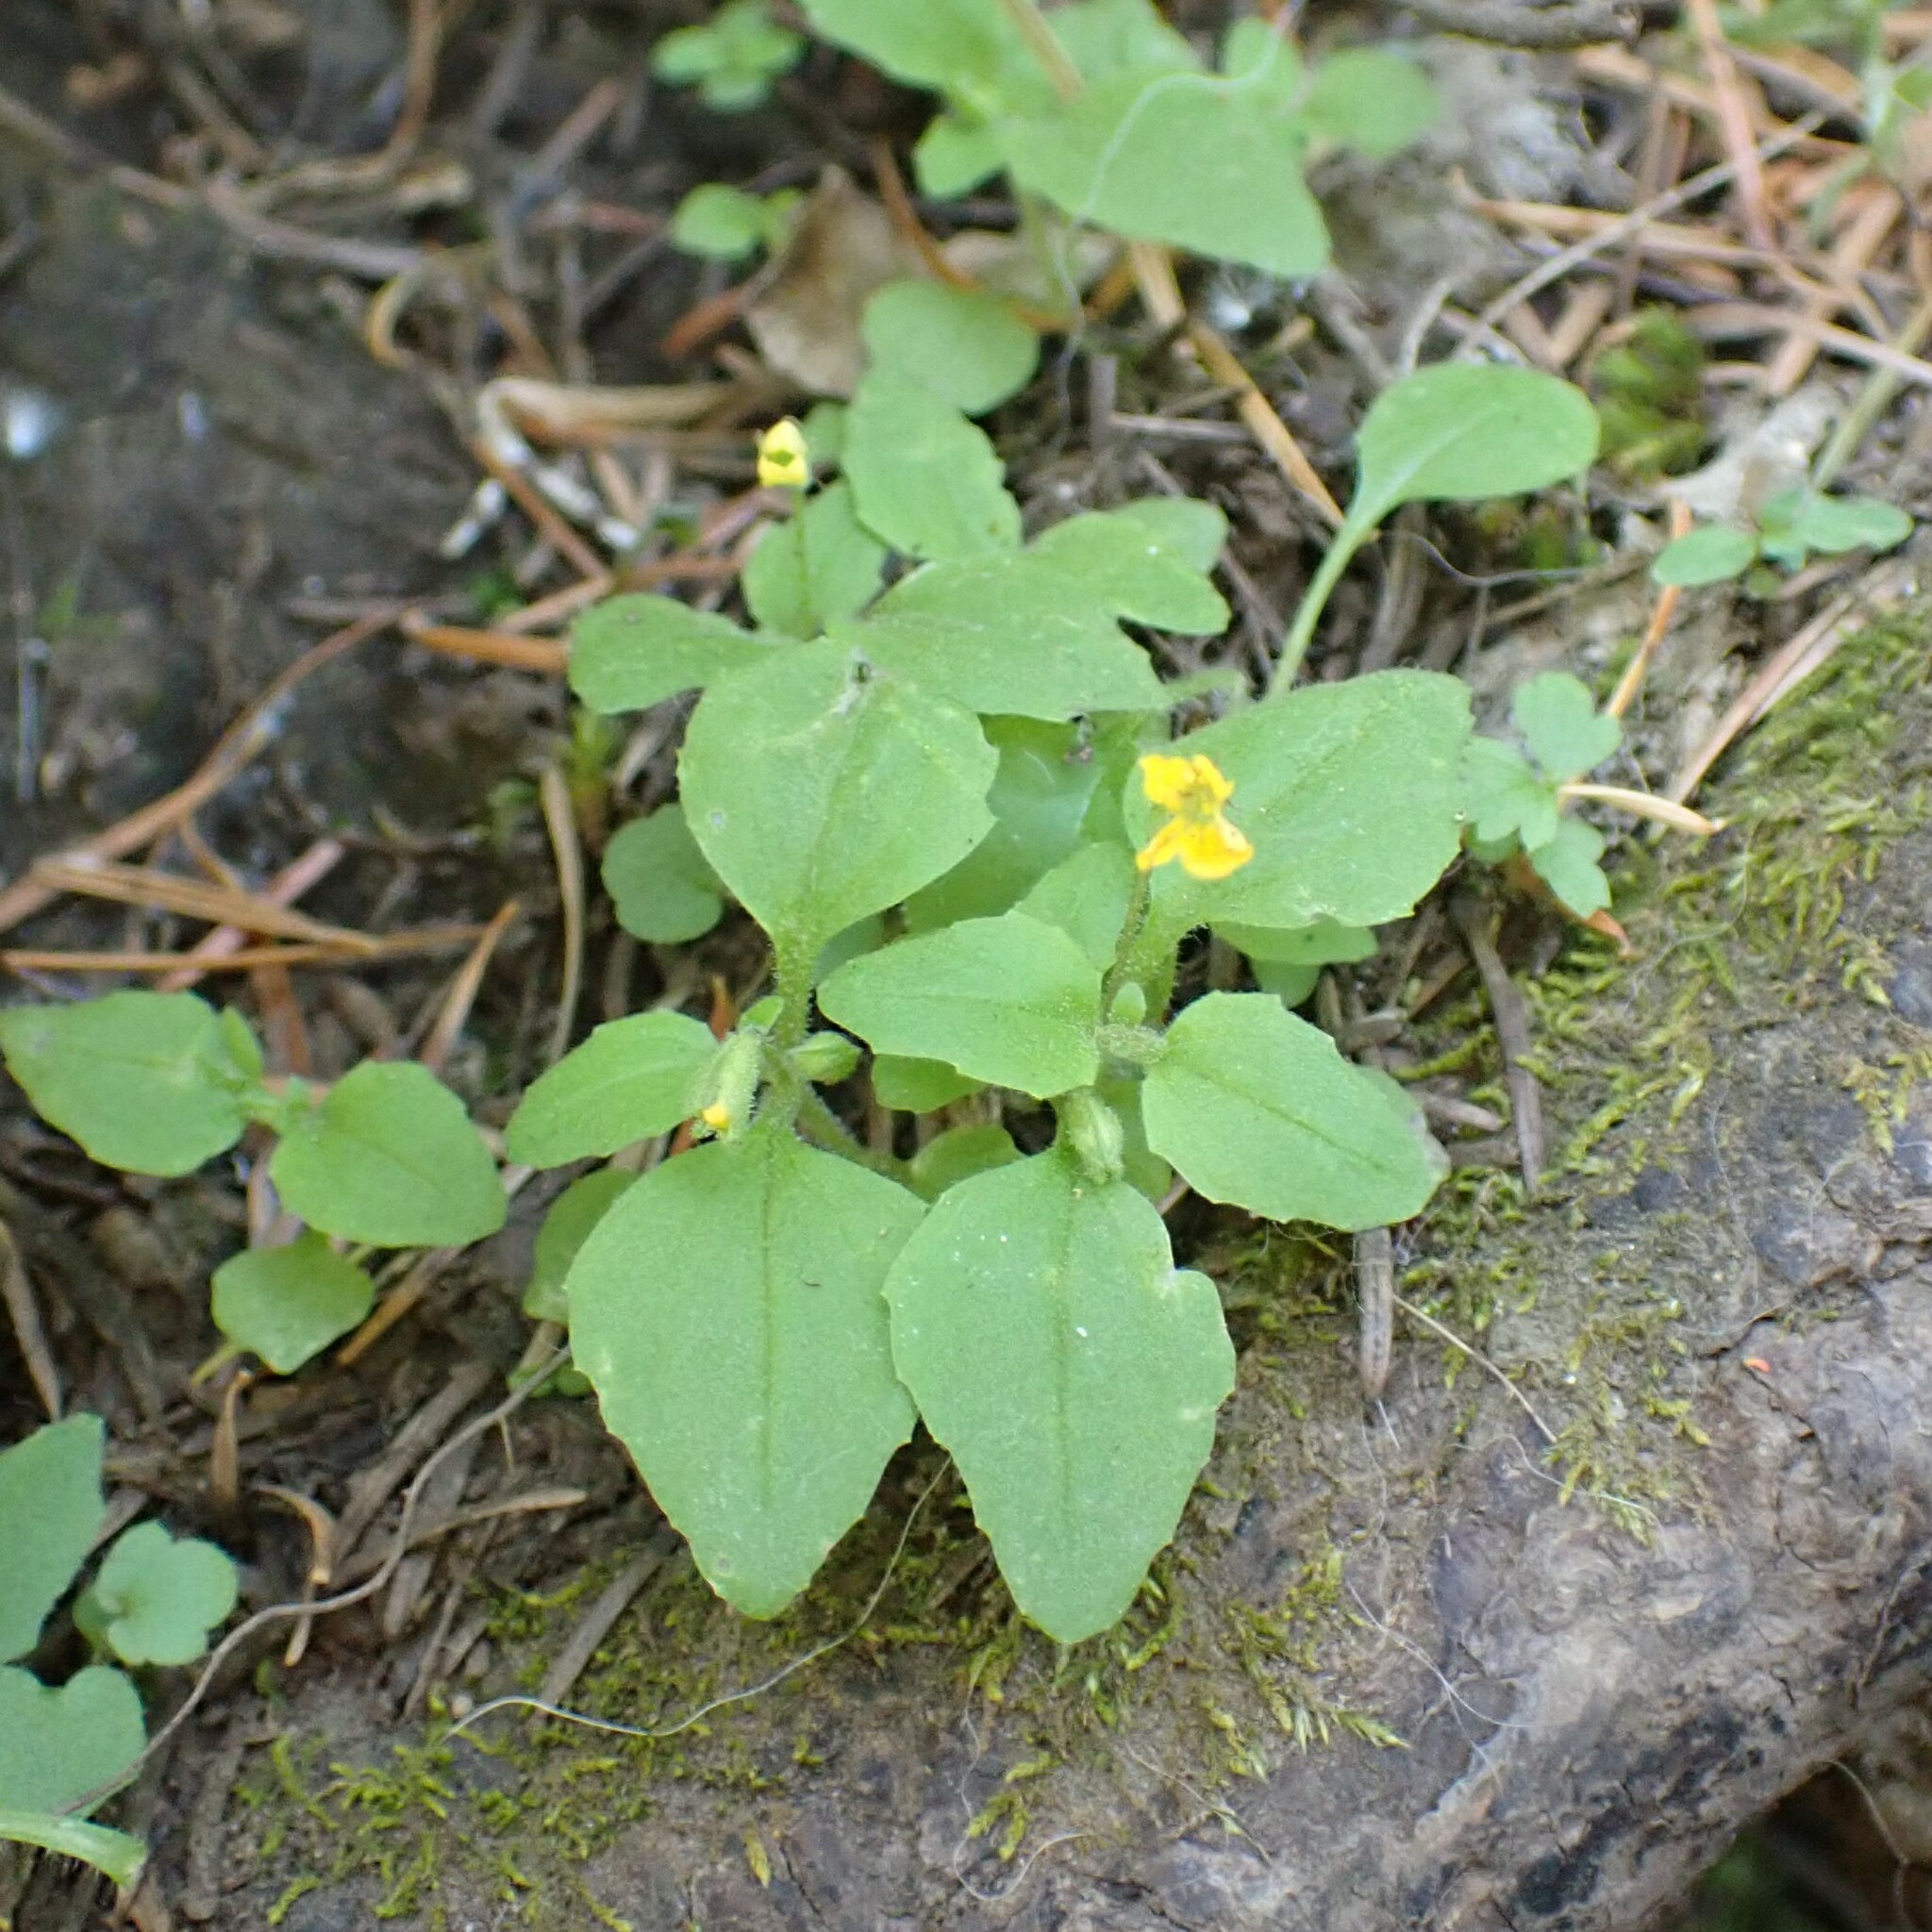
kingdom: Plantae
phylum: Tracheophyta
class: Magnoliopsida
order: Lamiales
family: Phrymaceae
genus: Erythranthe
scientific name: Erythranthe alsinoides
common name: Chickweed monkeyflower
